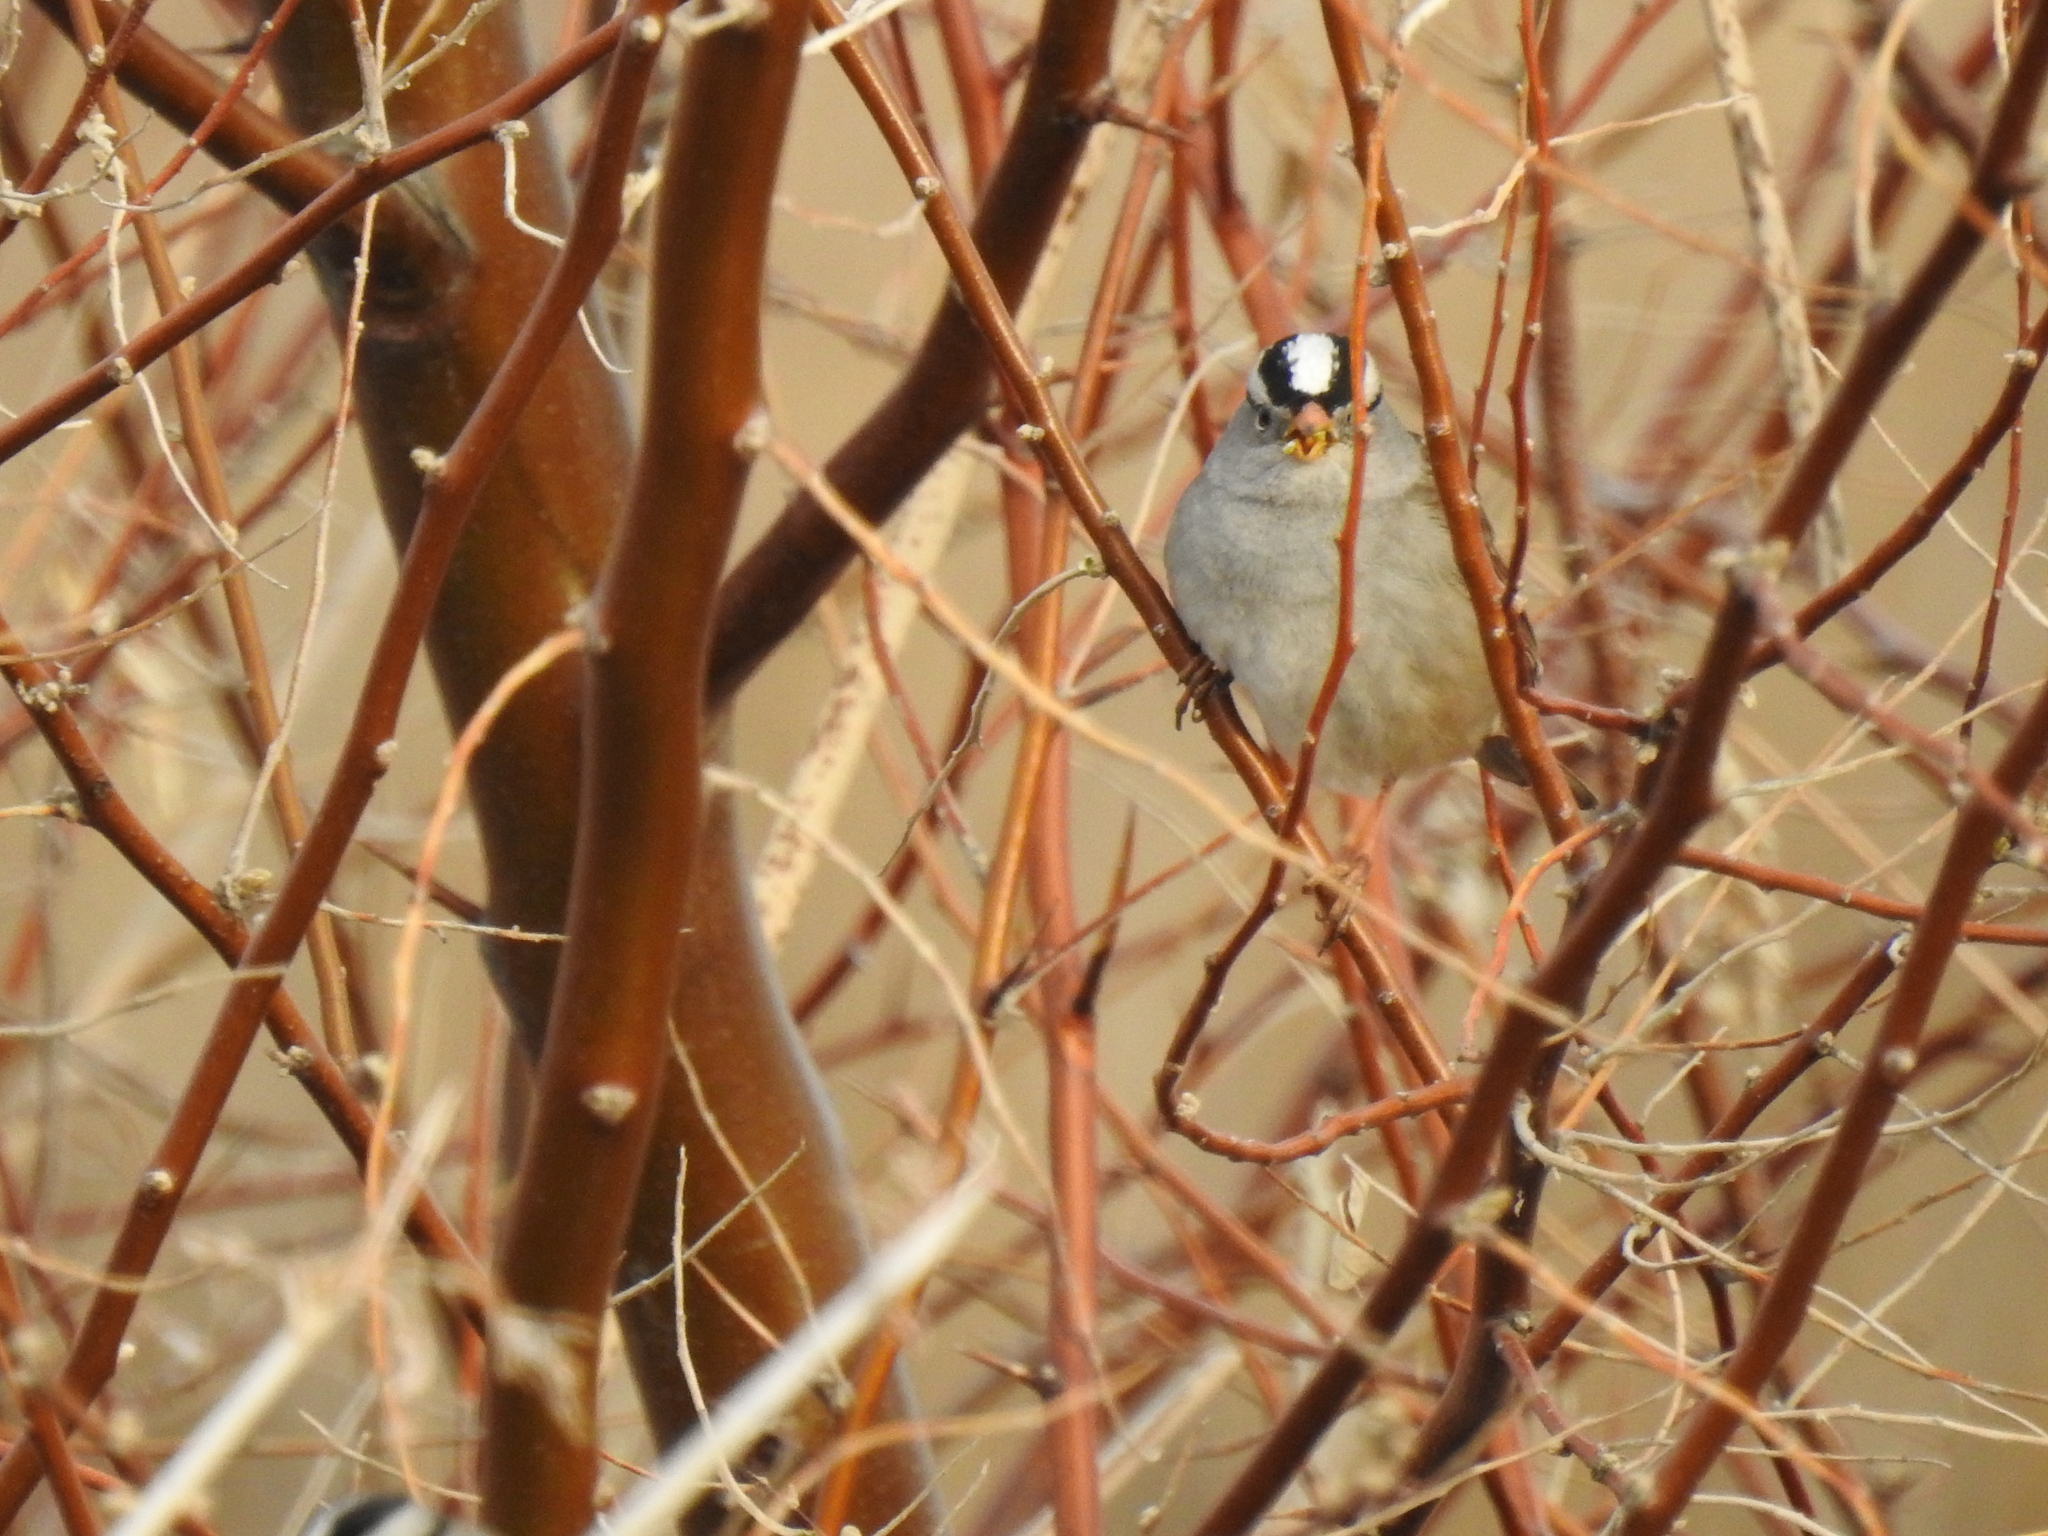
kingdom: Animalia
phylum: Chordata
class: Aves
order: Passeriformes
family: Passerellidae
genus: Zonotrichia
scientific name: Zonotrichia leucophrys
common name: White-crowned sparrow
